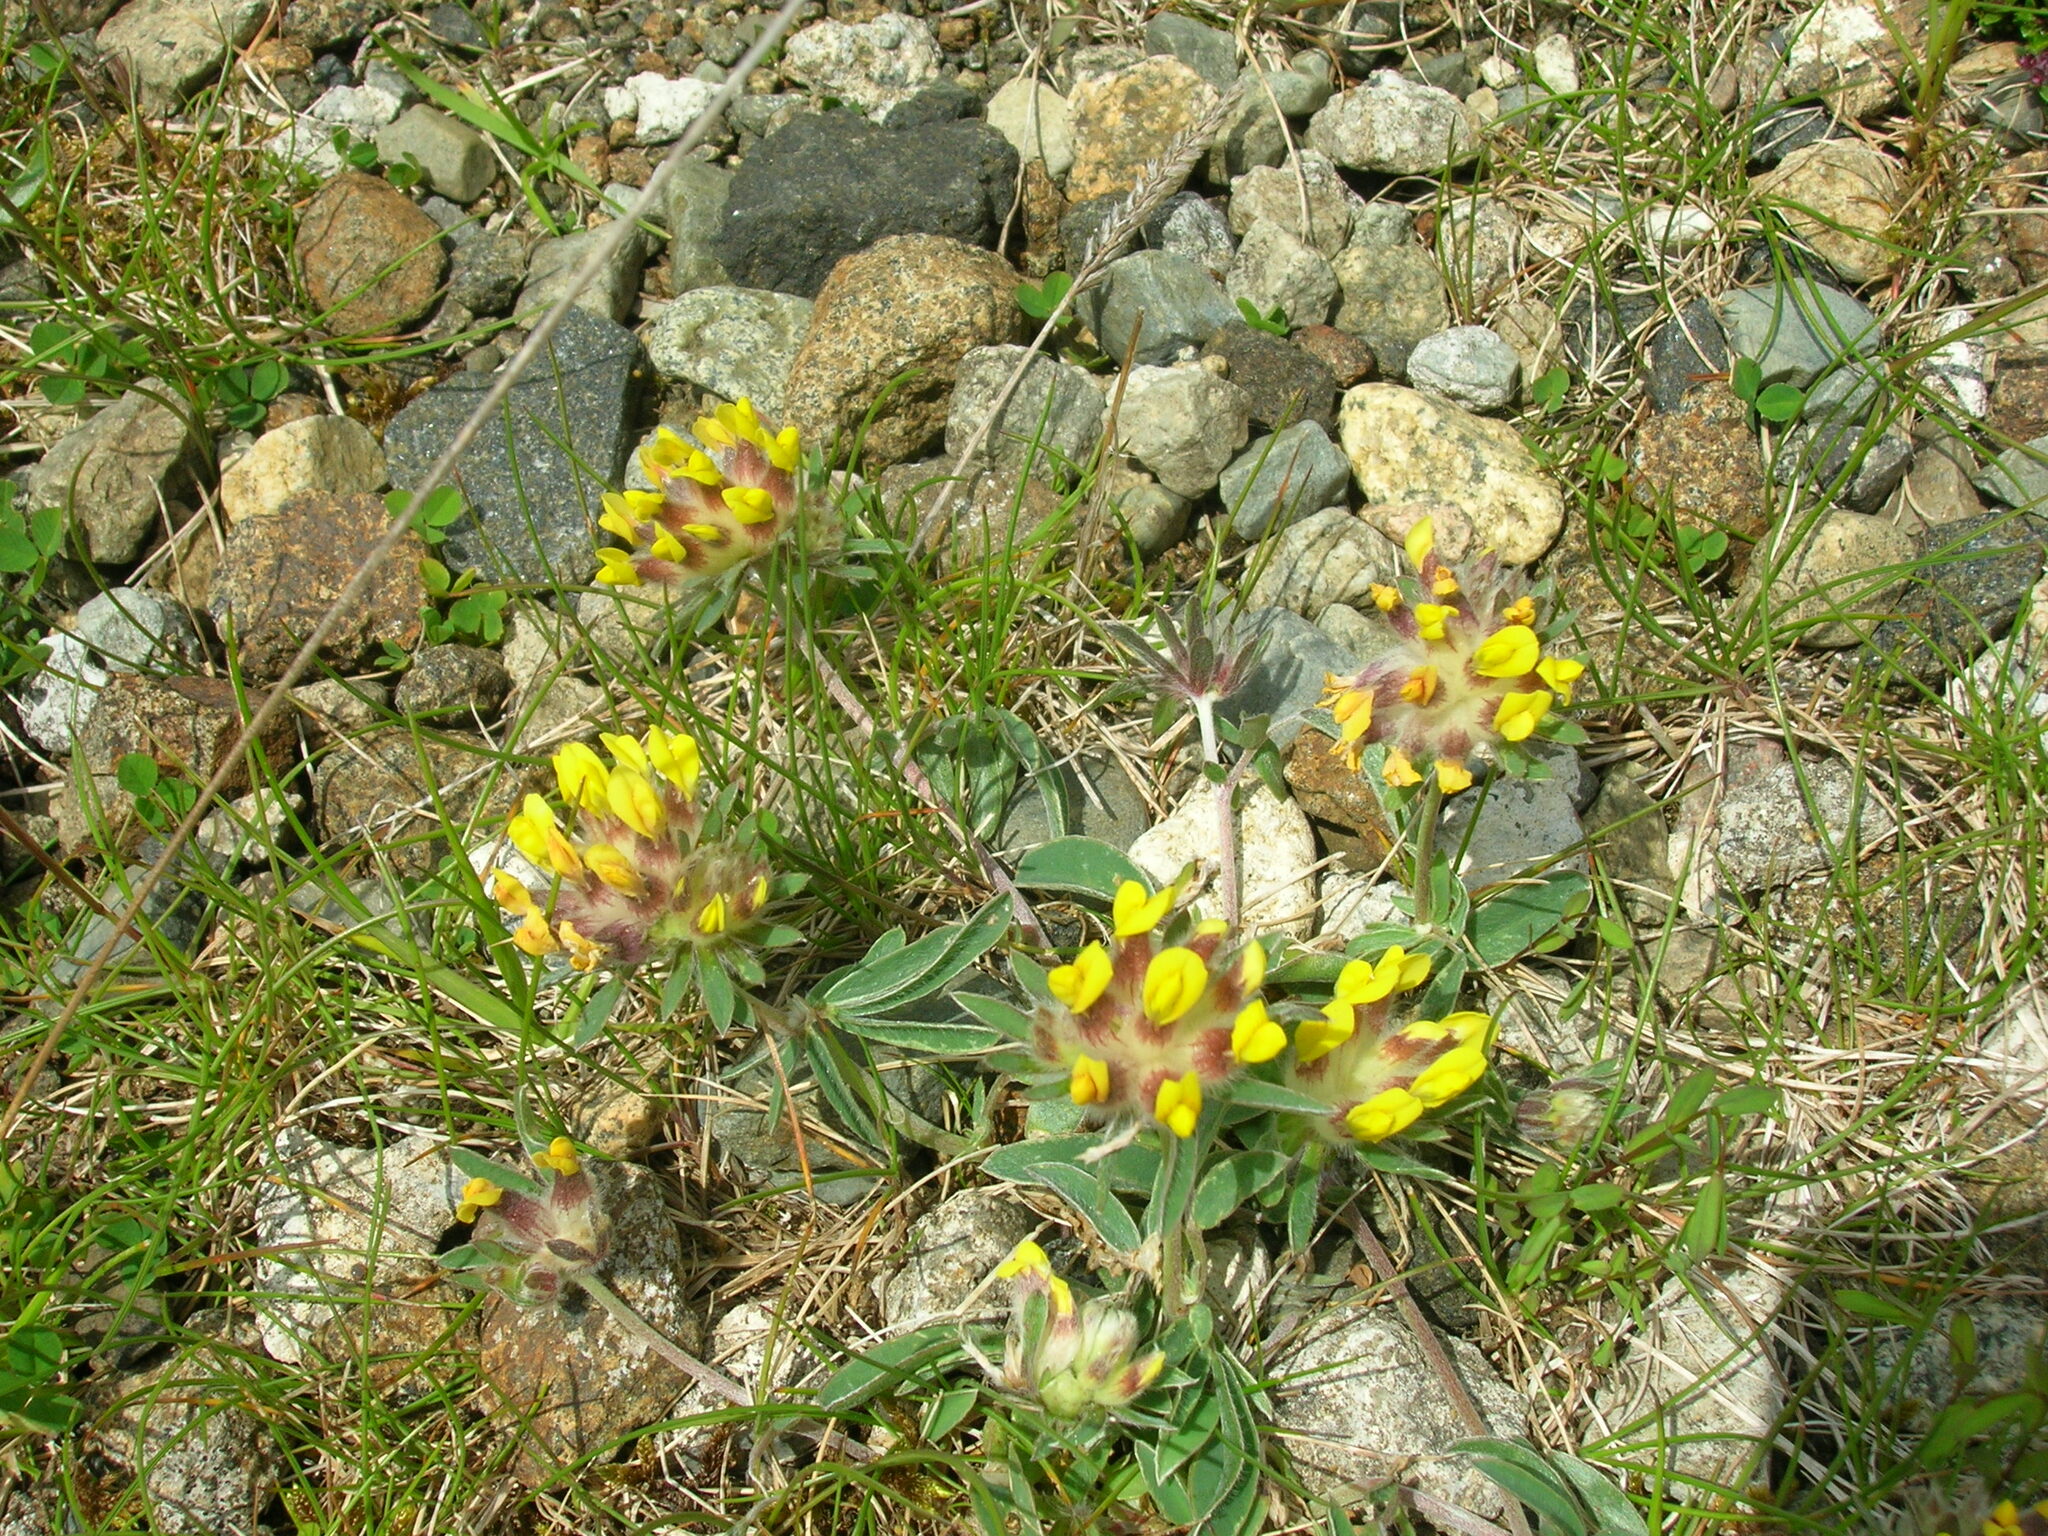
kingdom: Plantae
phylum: Tracheophyta
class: Magnoliopsida
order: Fabales
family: Fabaceae
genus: Anthyllis
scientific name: Anthyllis vulneraria
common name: Kidney vetch
